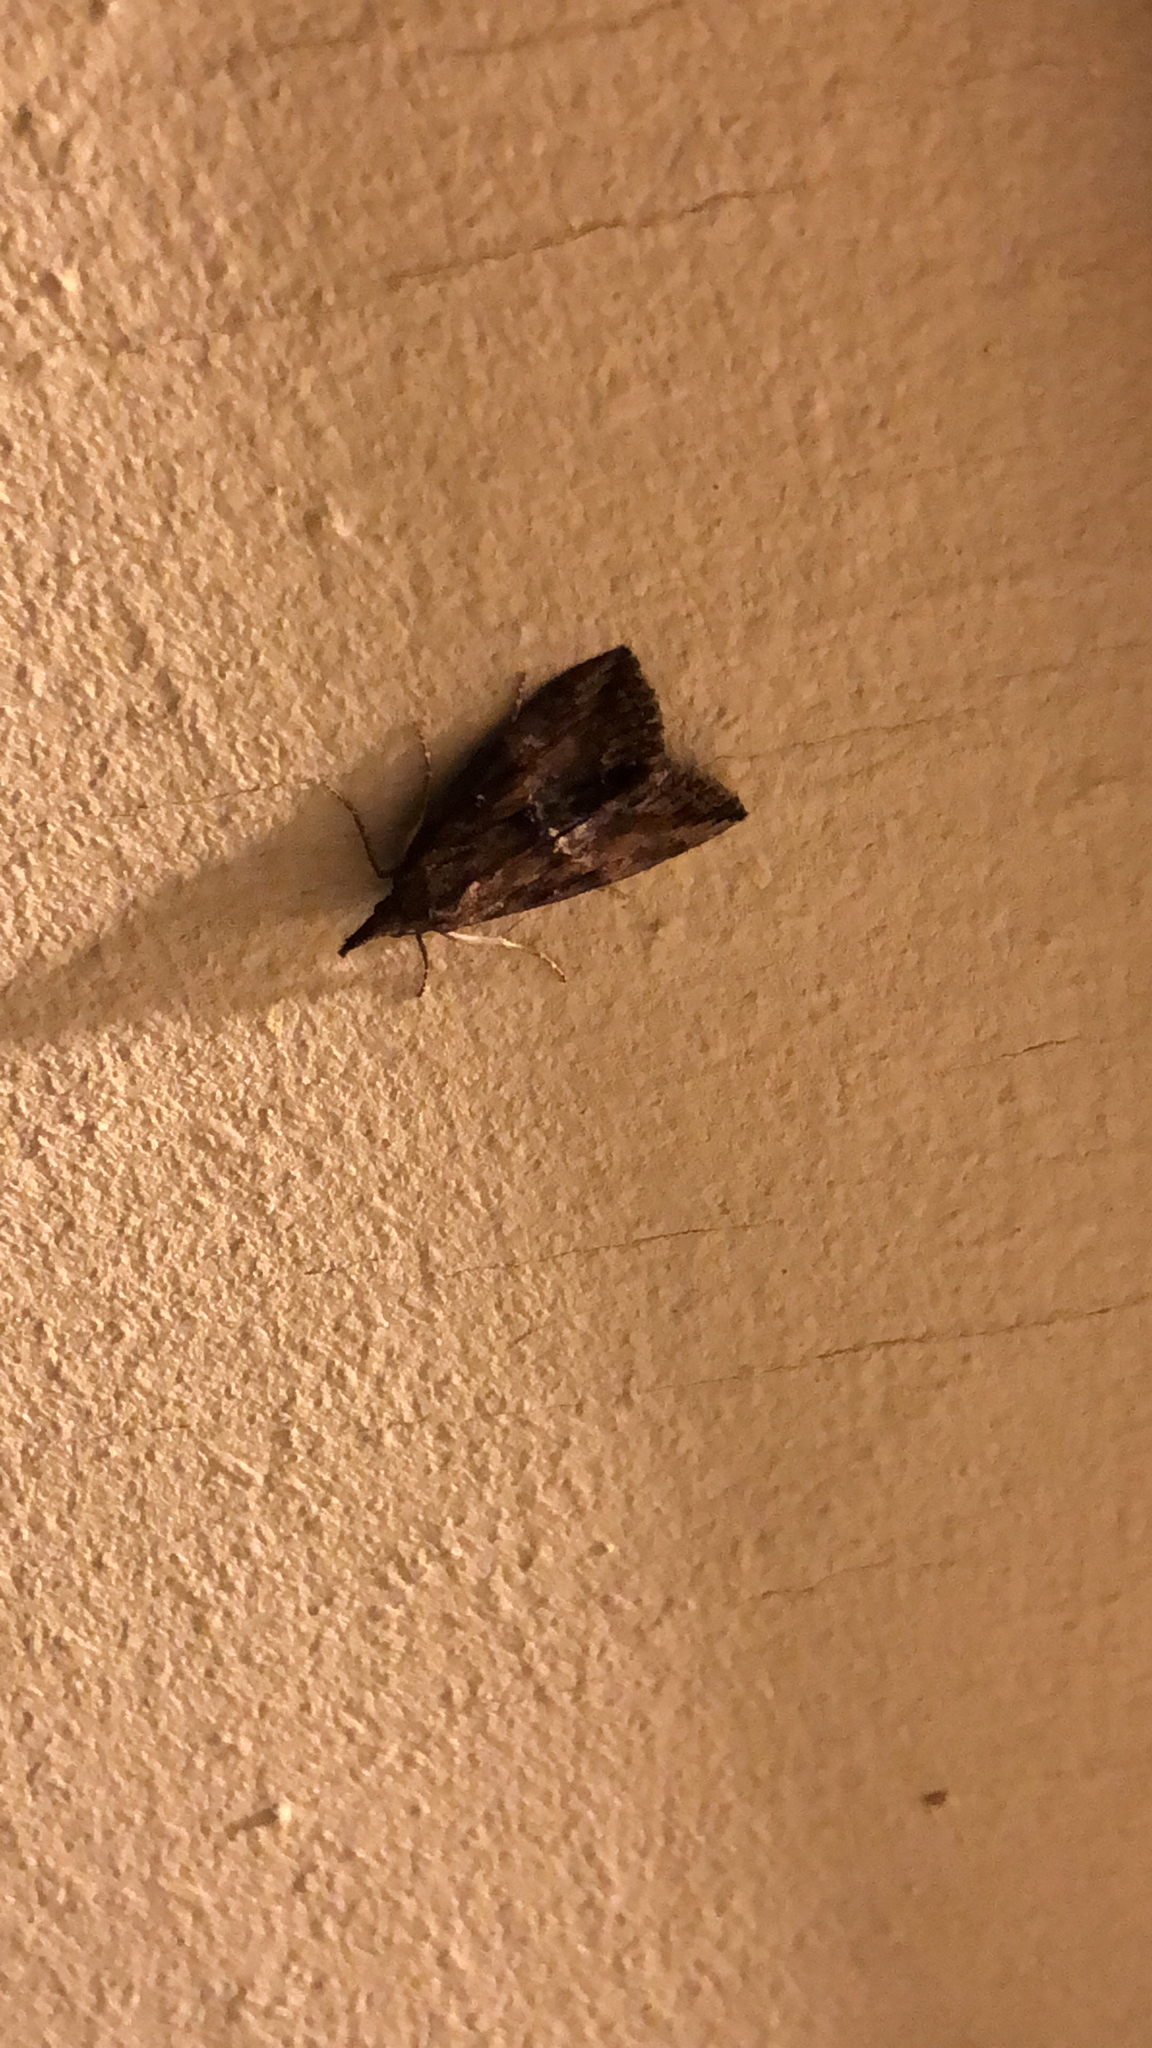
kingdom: Animalia
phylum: Arthropoda
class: Insecta
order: Lepidoptera
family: Erebidae
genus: Hypena
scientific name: Hypena scabra
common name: Green cloverworm
